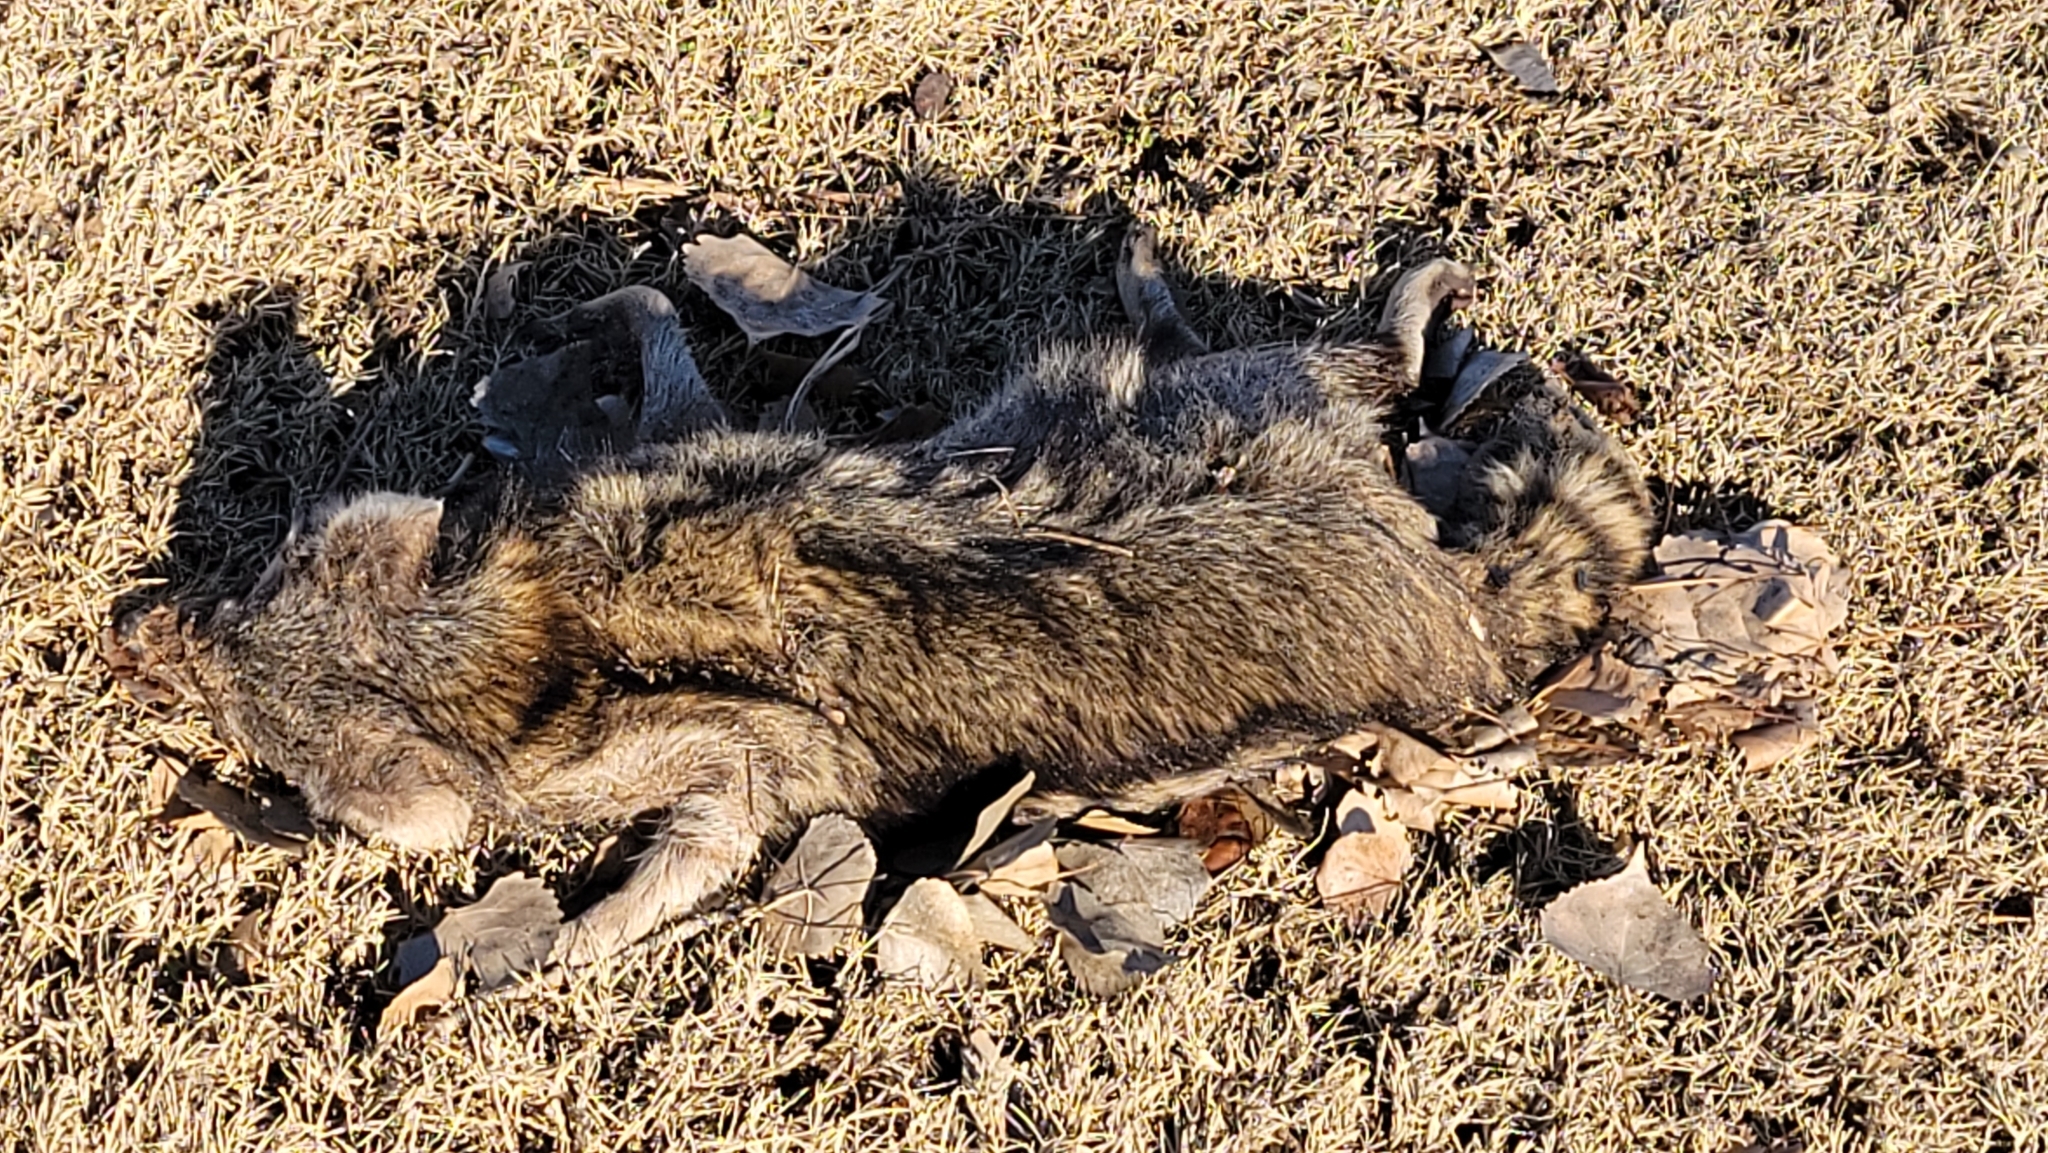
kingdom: Animalia
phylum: Chordata
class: Mammalia
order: Carnivora
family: Procyonidae
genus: Procyon
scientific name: Procyon lotor
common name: Raccoon
